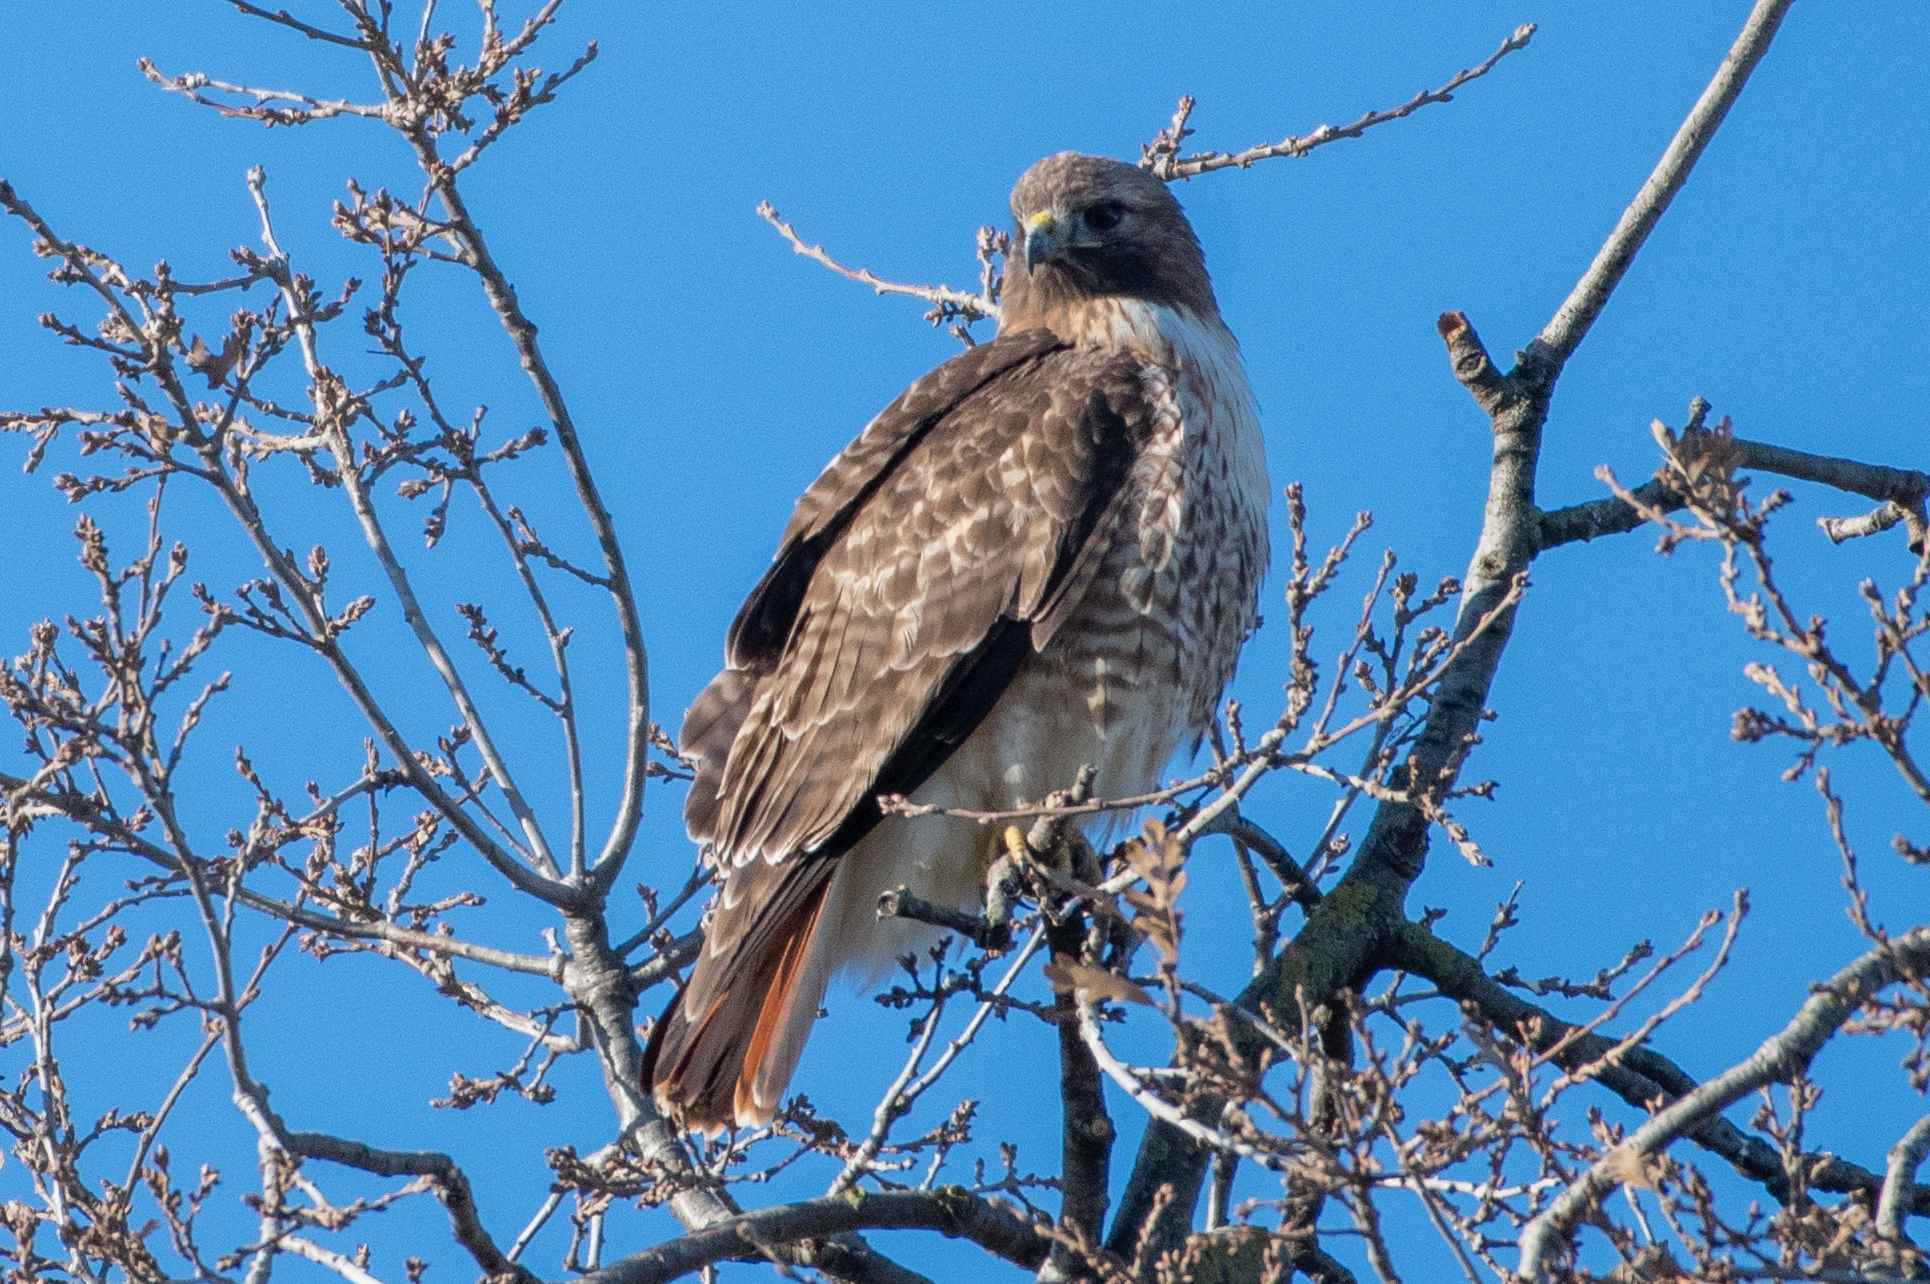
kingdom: Animalia
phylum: Chordata
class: Aves
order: Accipitriformes
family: Accipitridae
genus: Buteo
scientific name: Buteo jamaicensis
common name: Red-tailed hawk
